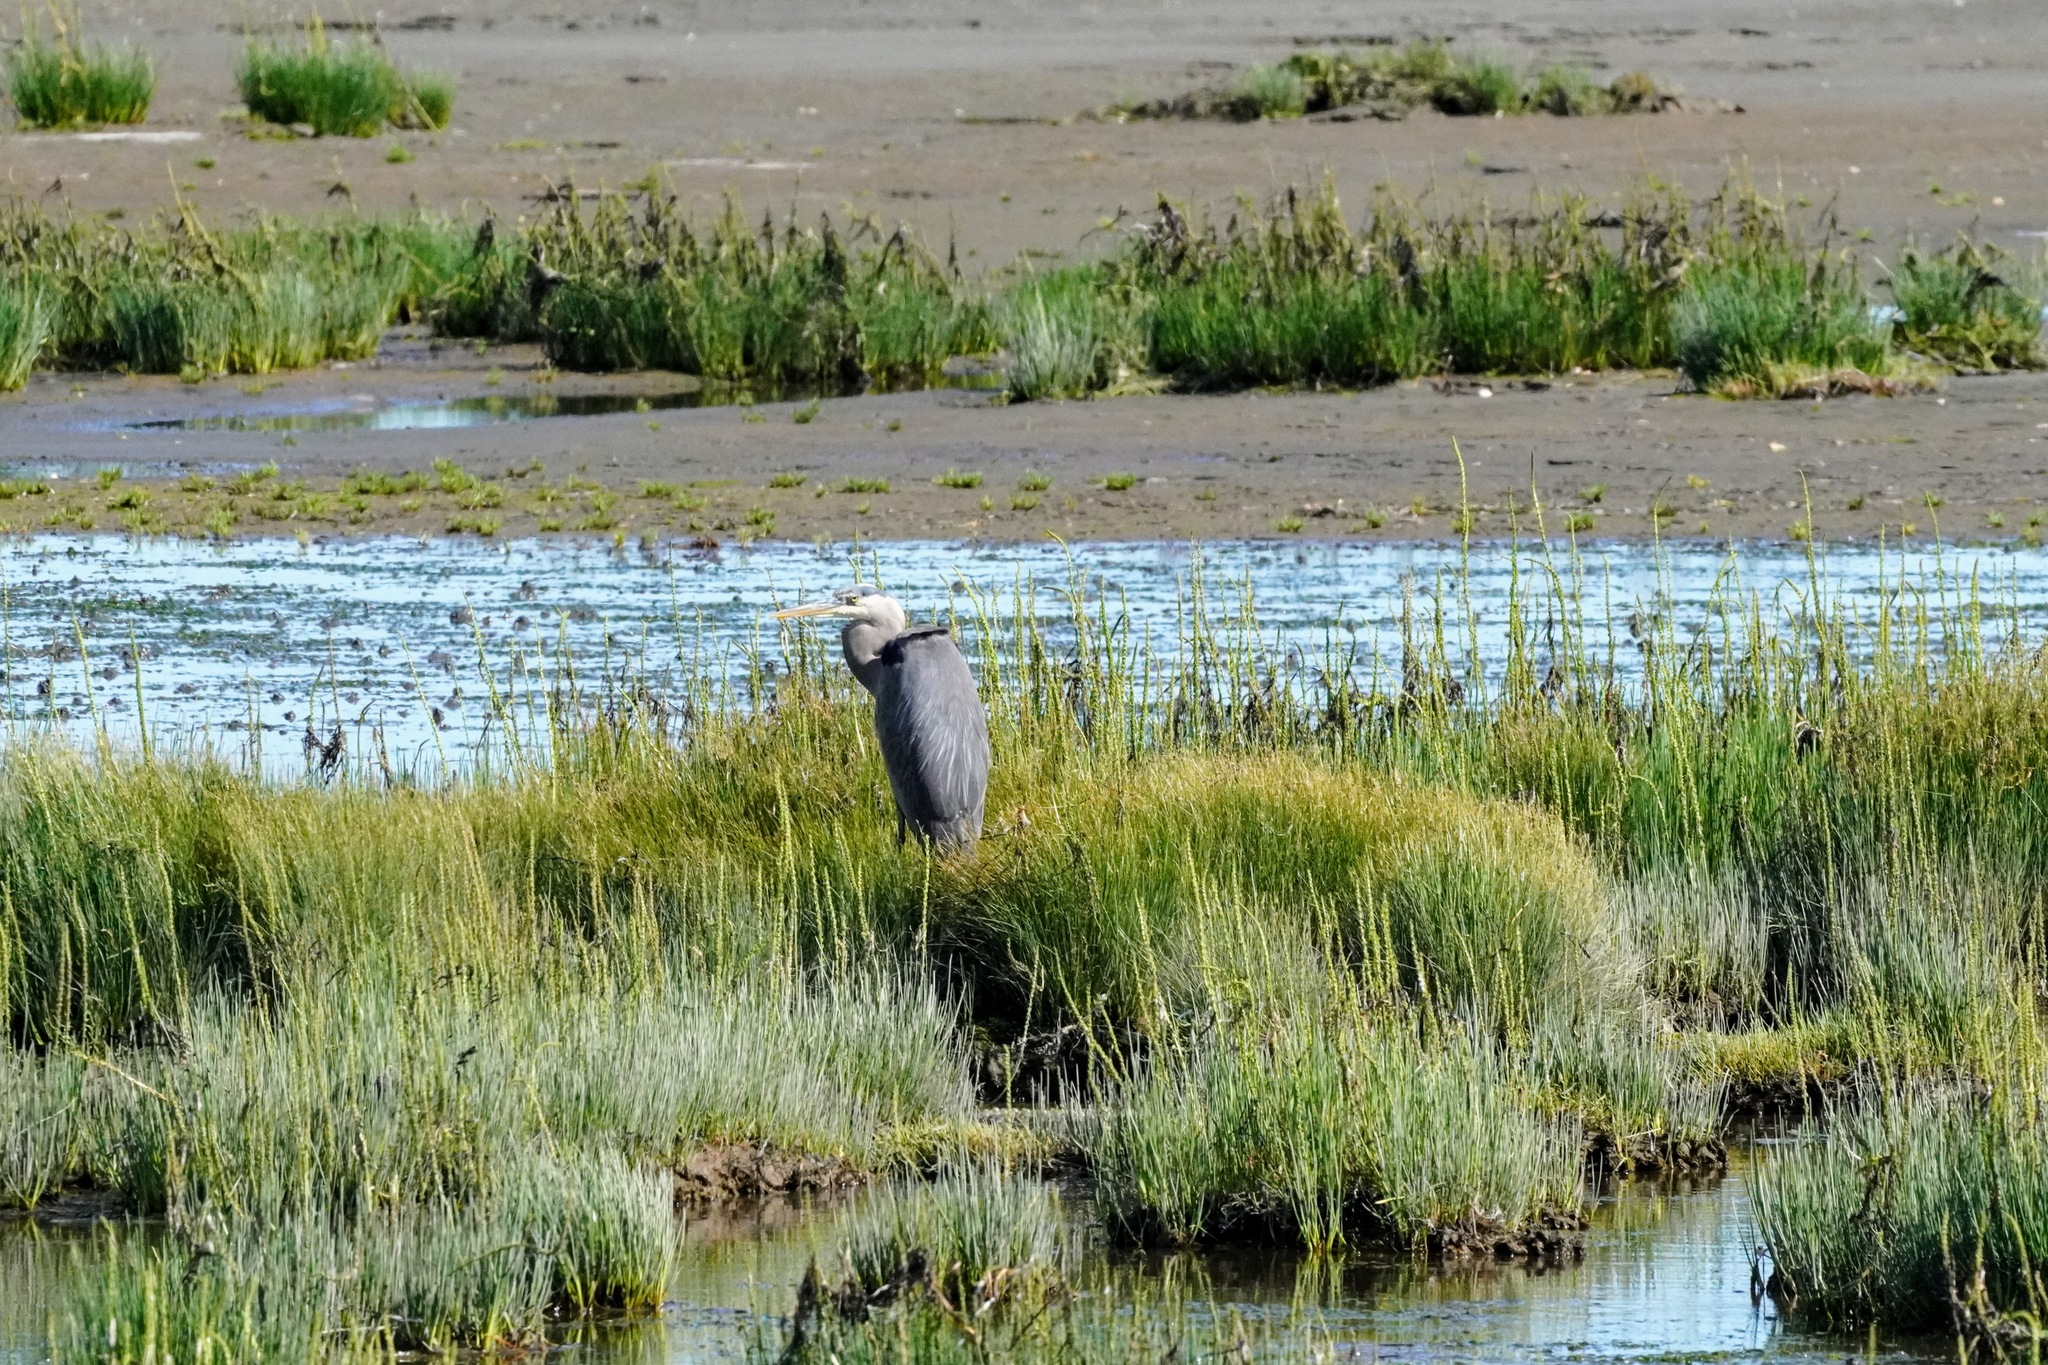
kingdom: Animalia
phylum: Chordata
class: Aves
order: Pelecaniformes
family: Ardeidae
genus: Ardea
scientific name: Ardea herodias
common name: Great blue heron
